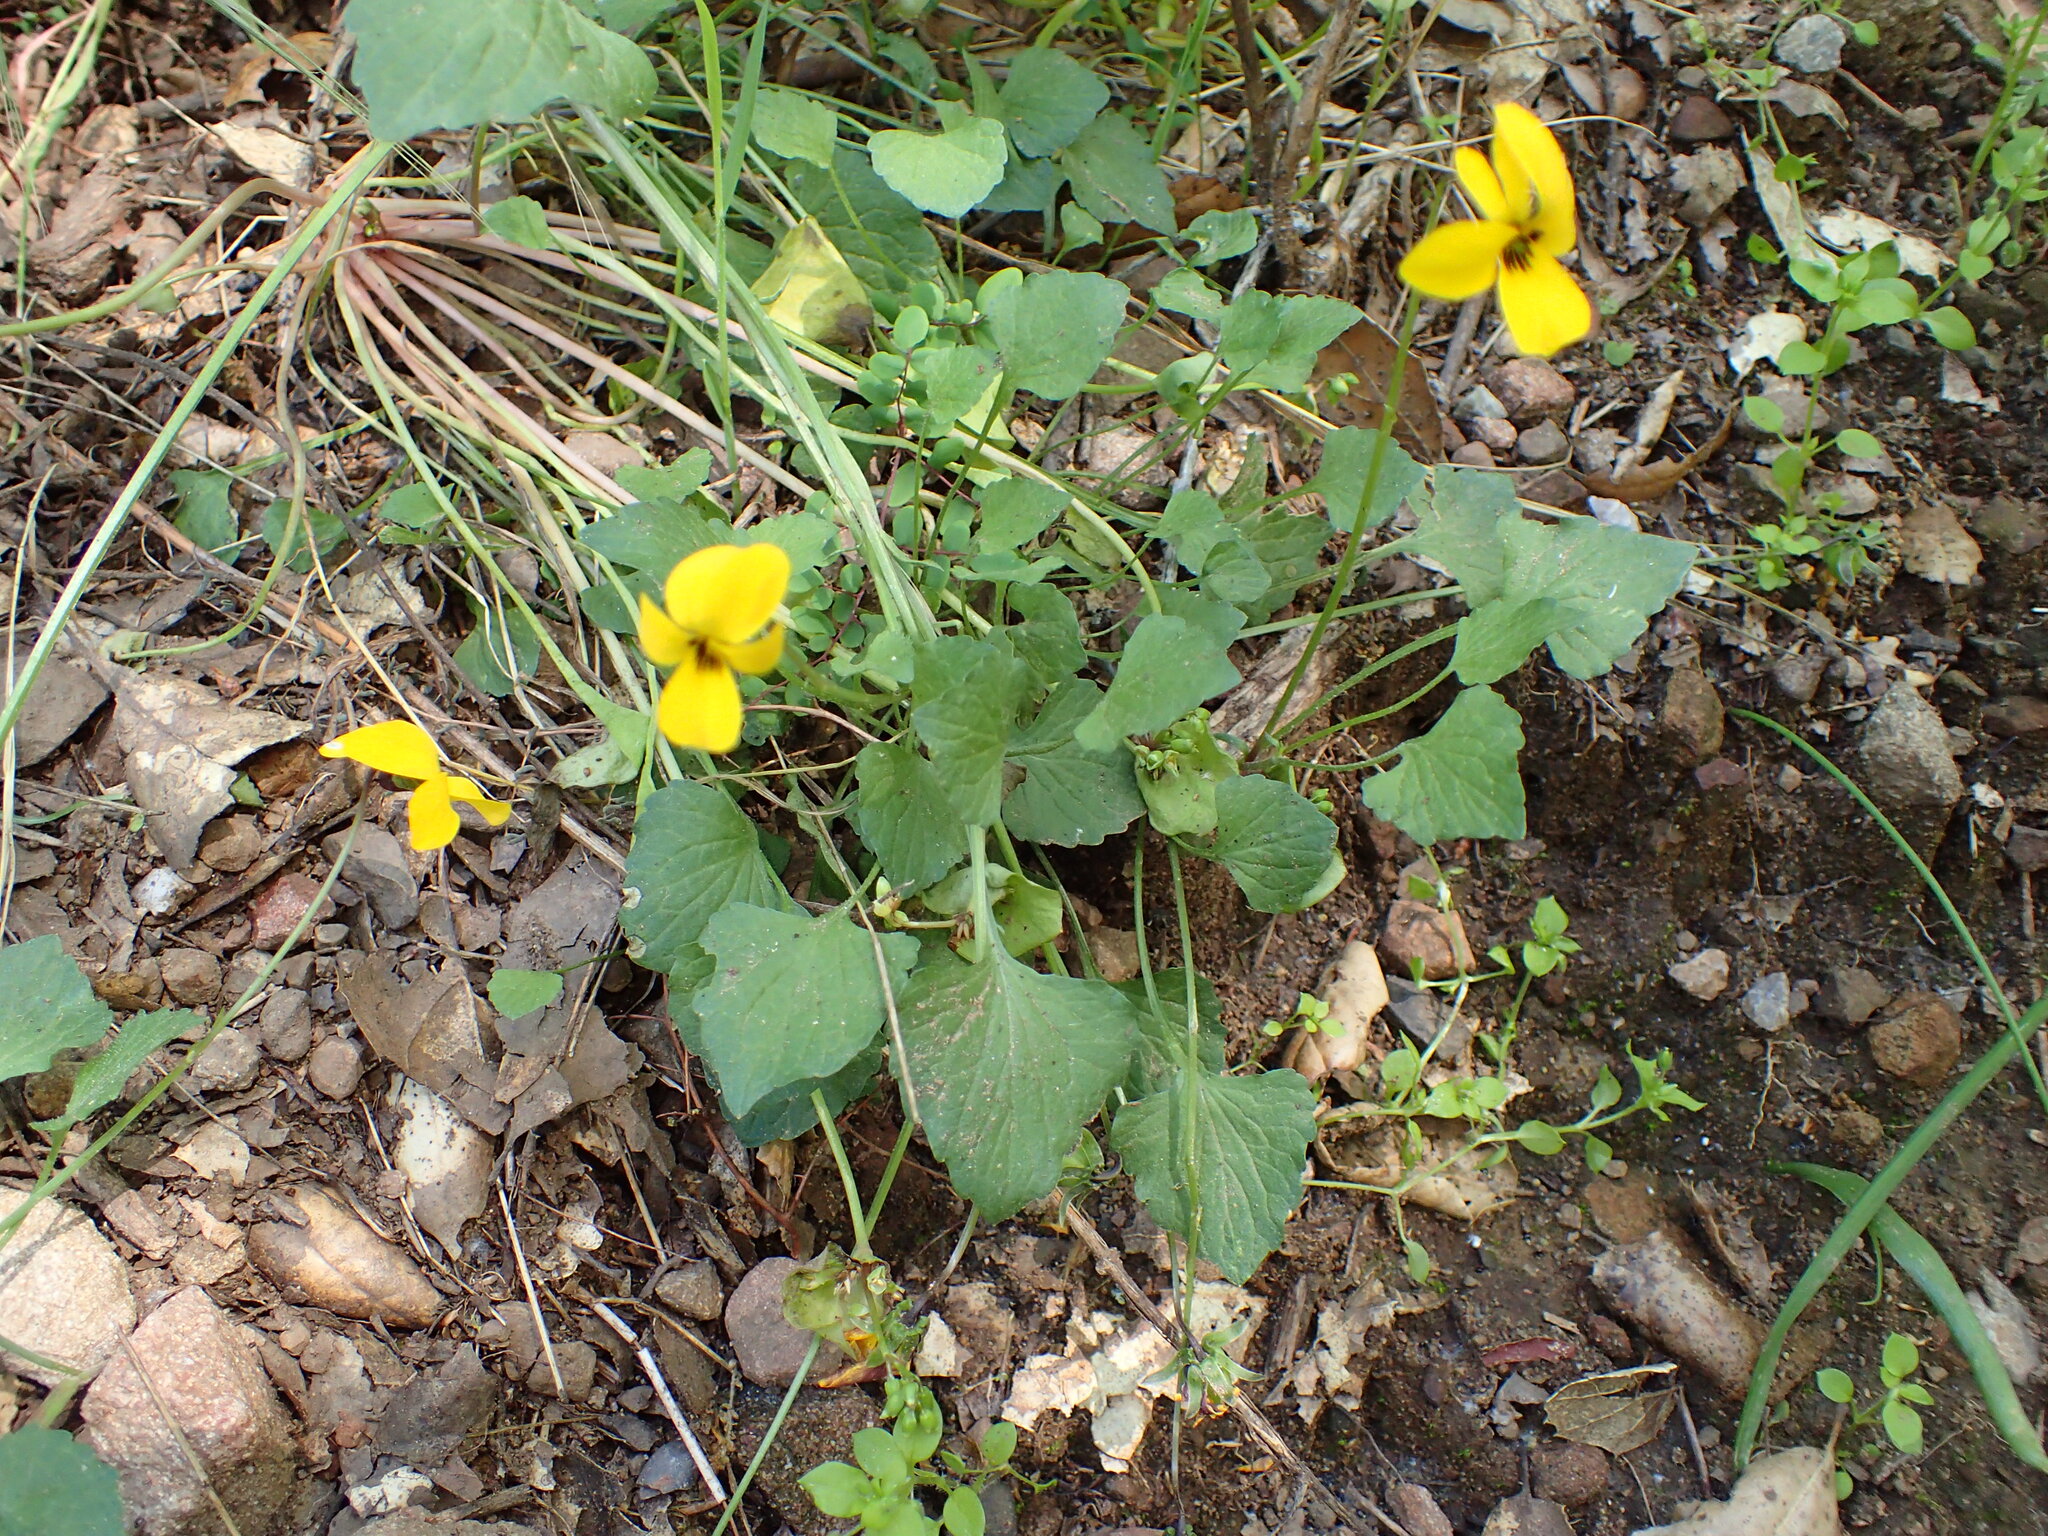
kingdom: Plantae
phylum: Tracheophyta
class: Magnoliopsida
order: Malpighiales
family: Violaceae
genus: Viola
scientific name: Viola pedunculata
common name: California golden violet
